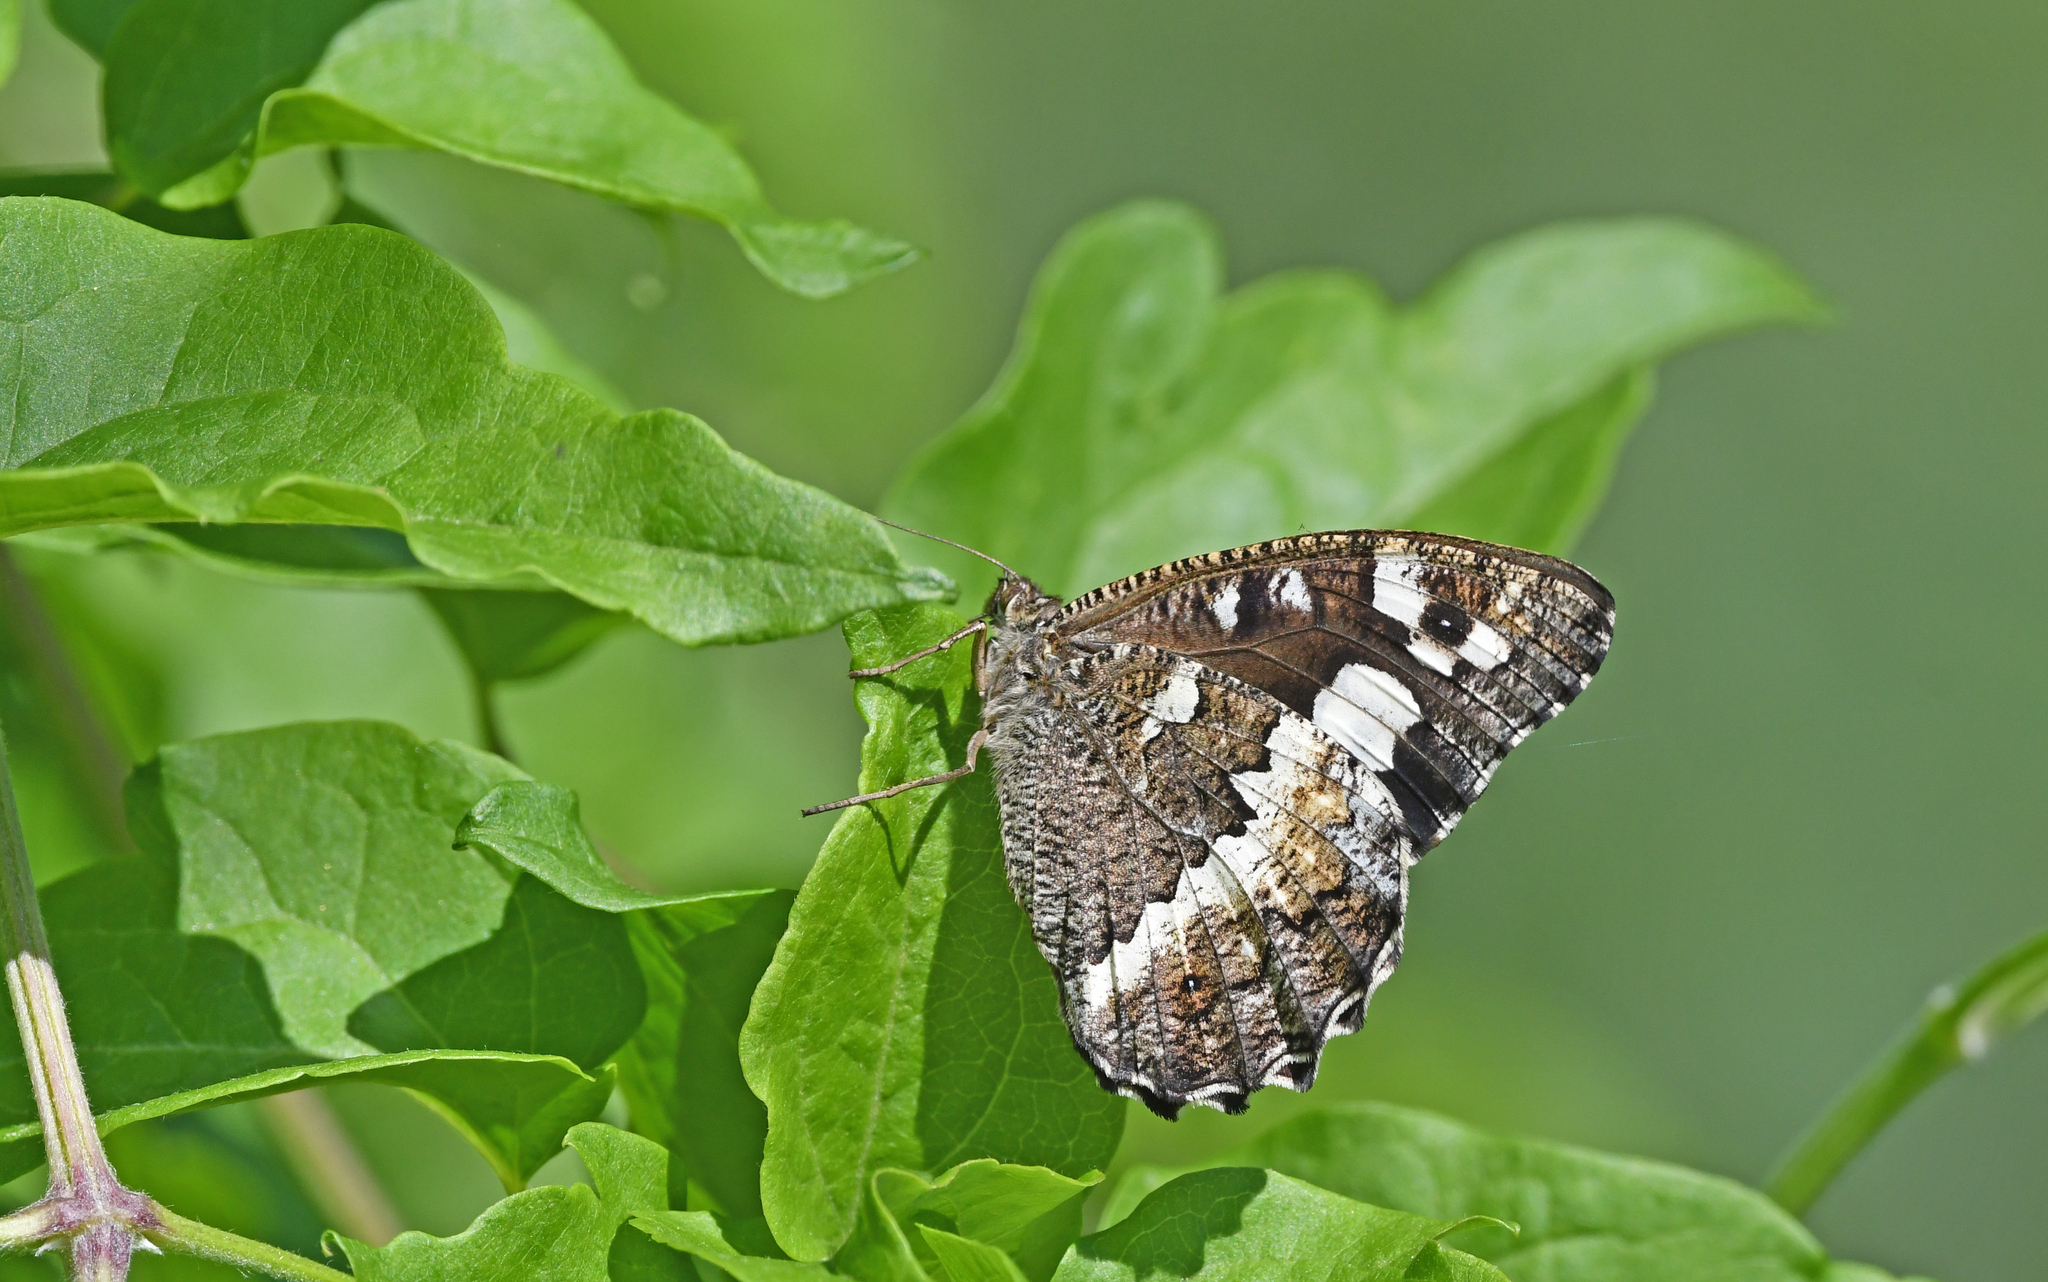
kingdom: Animalia
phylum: Arthropoda
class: Insecta
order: Lepidoptera
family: Lycaenidae
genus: Loweia
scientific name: Loweia tityrus
